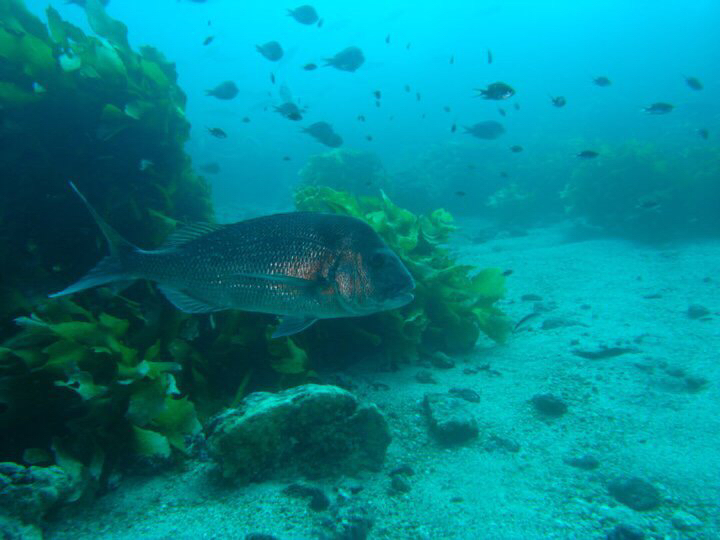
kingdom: Animalia
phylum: Chordata
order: Perciformes
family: Sparidae
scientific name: Sparidae
